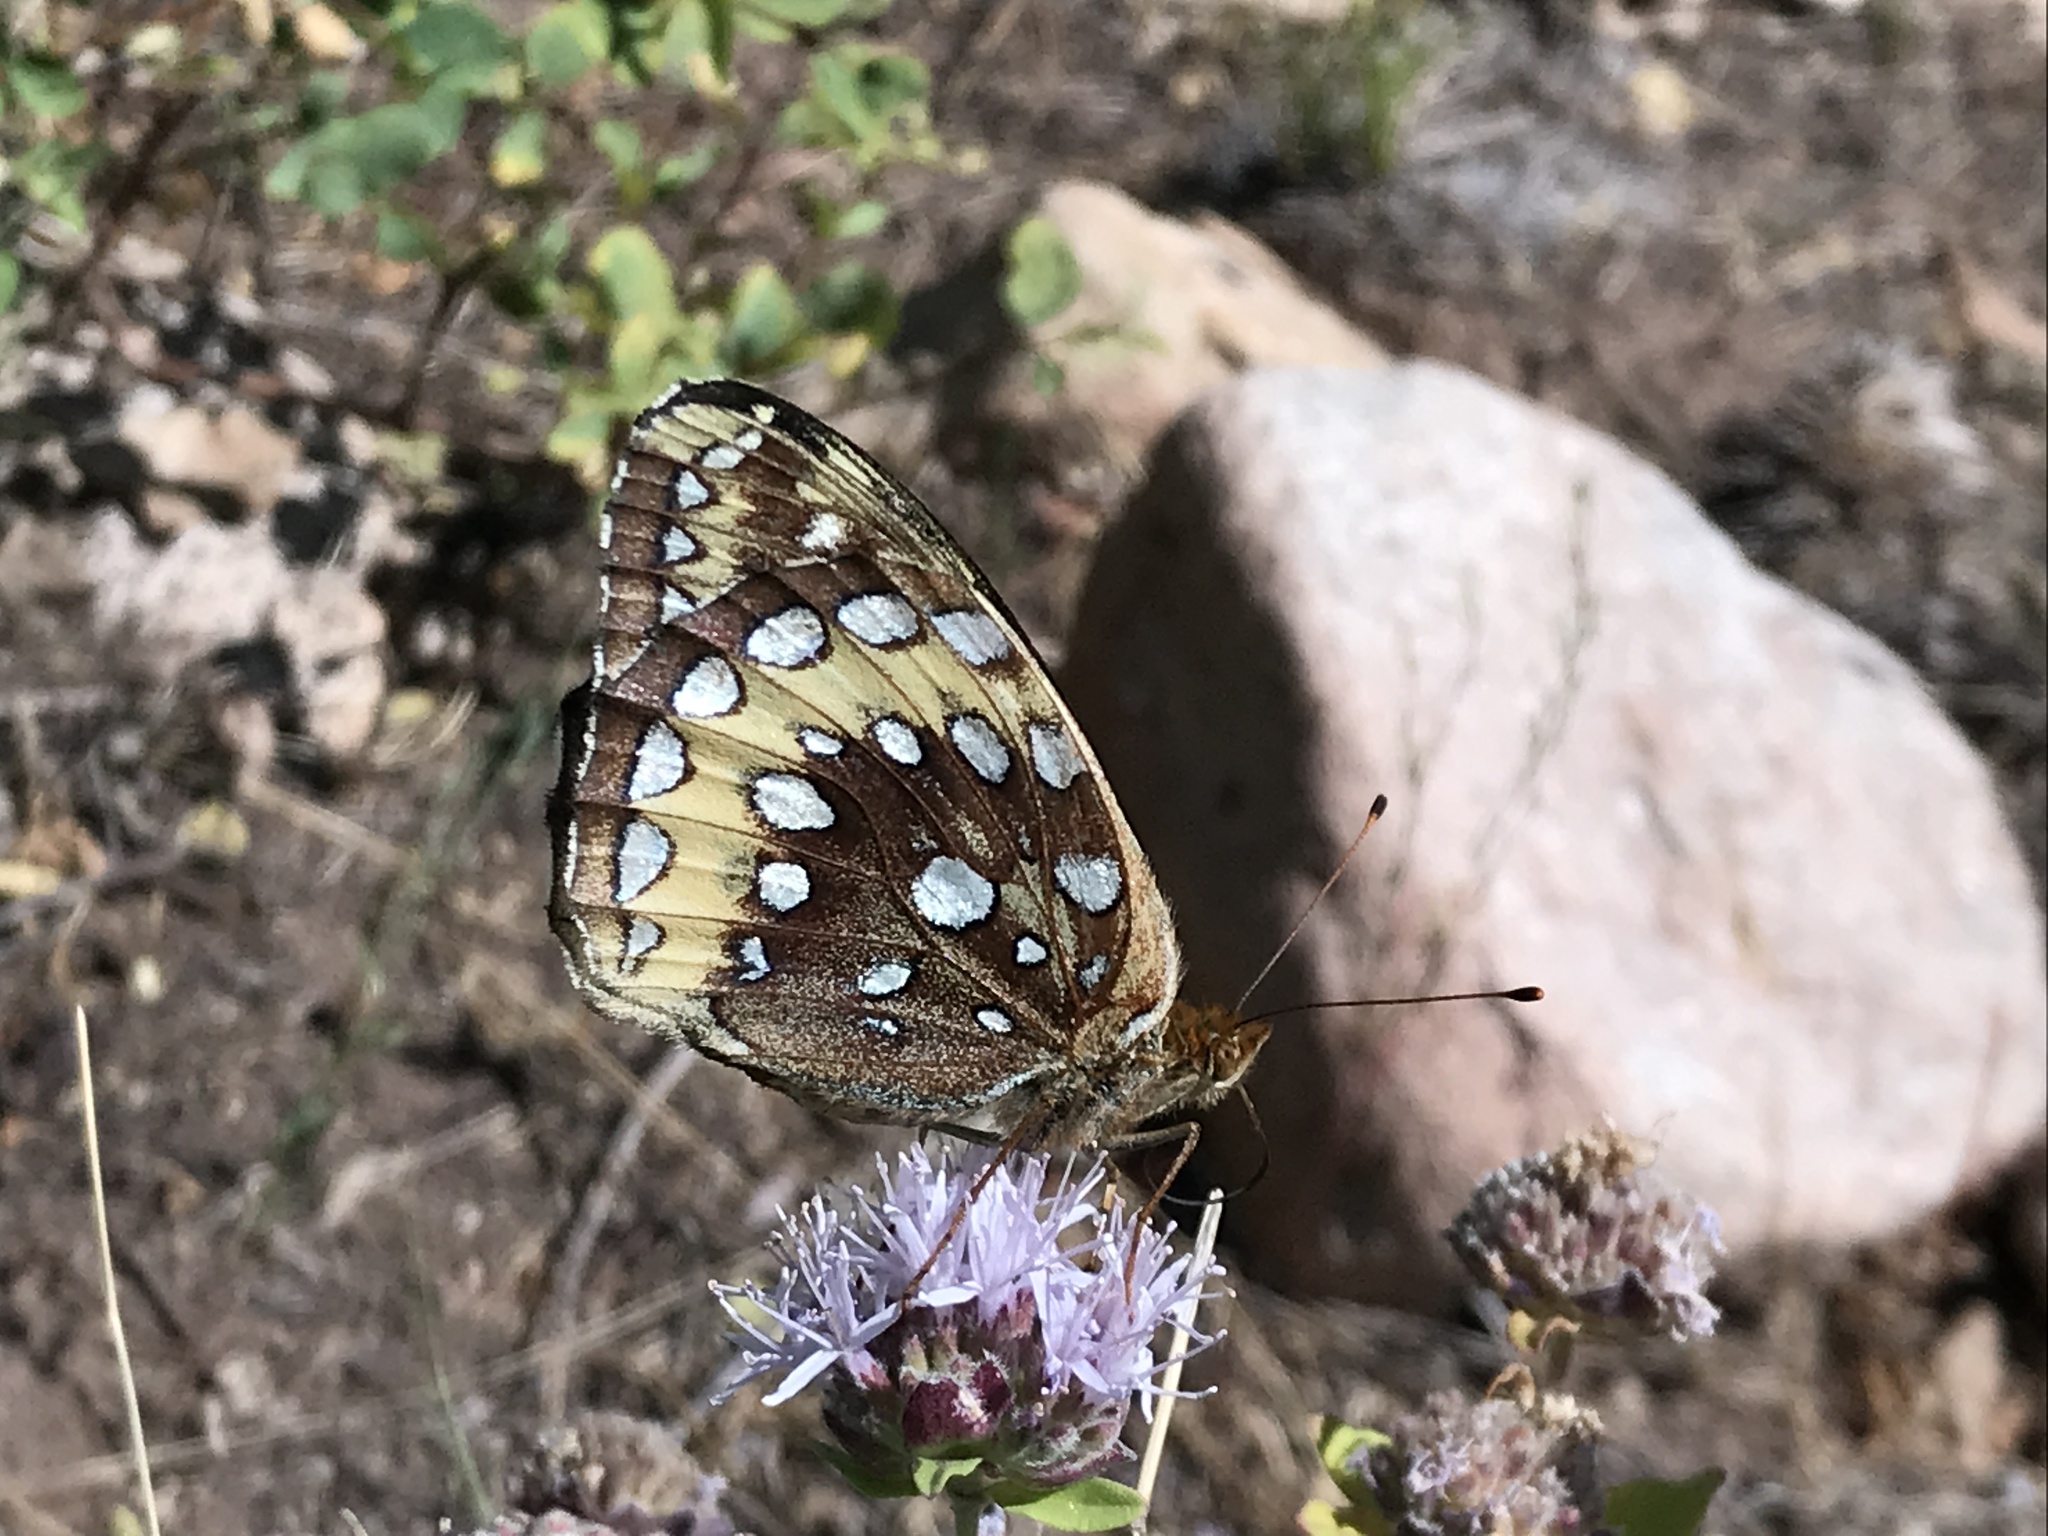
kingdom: Animalia
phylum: Arthropoda
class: Insecta
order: Lepidoptera
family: Nymphalidae
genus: Speyeria
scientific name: Speyeria cybele
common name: Great spangled fritillary
